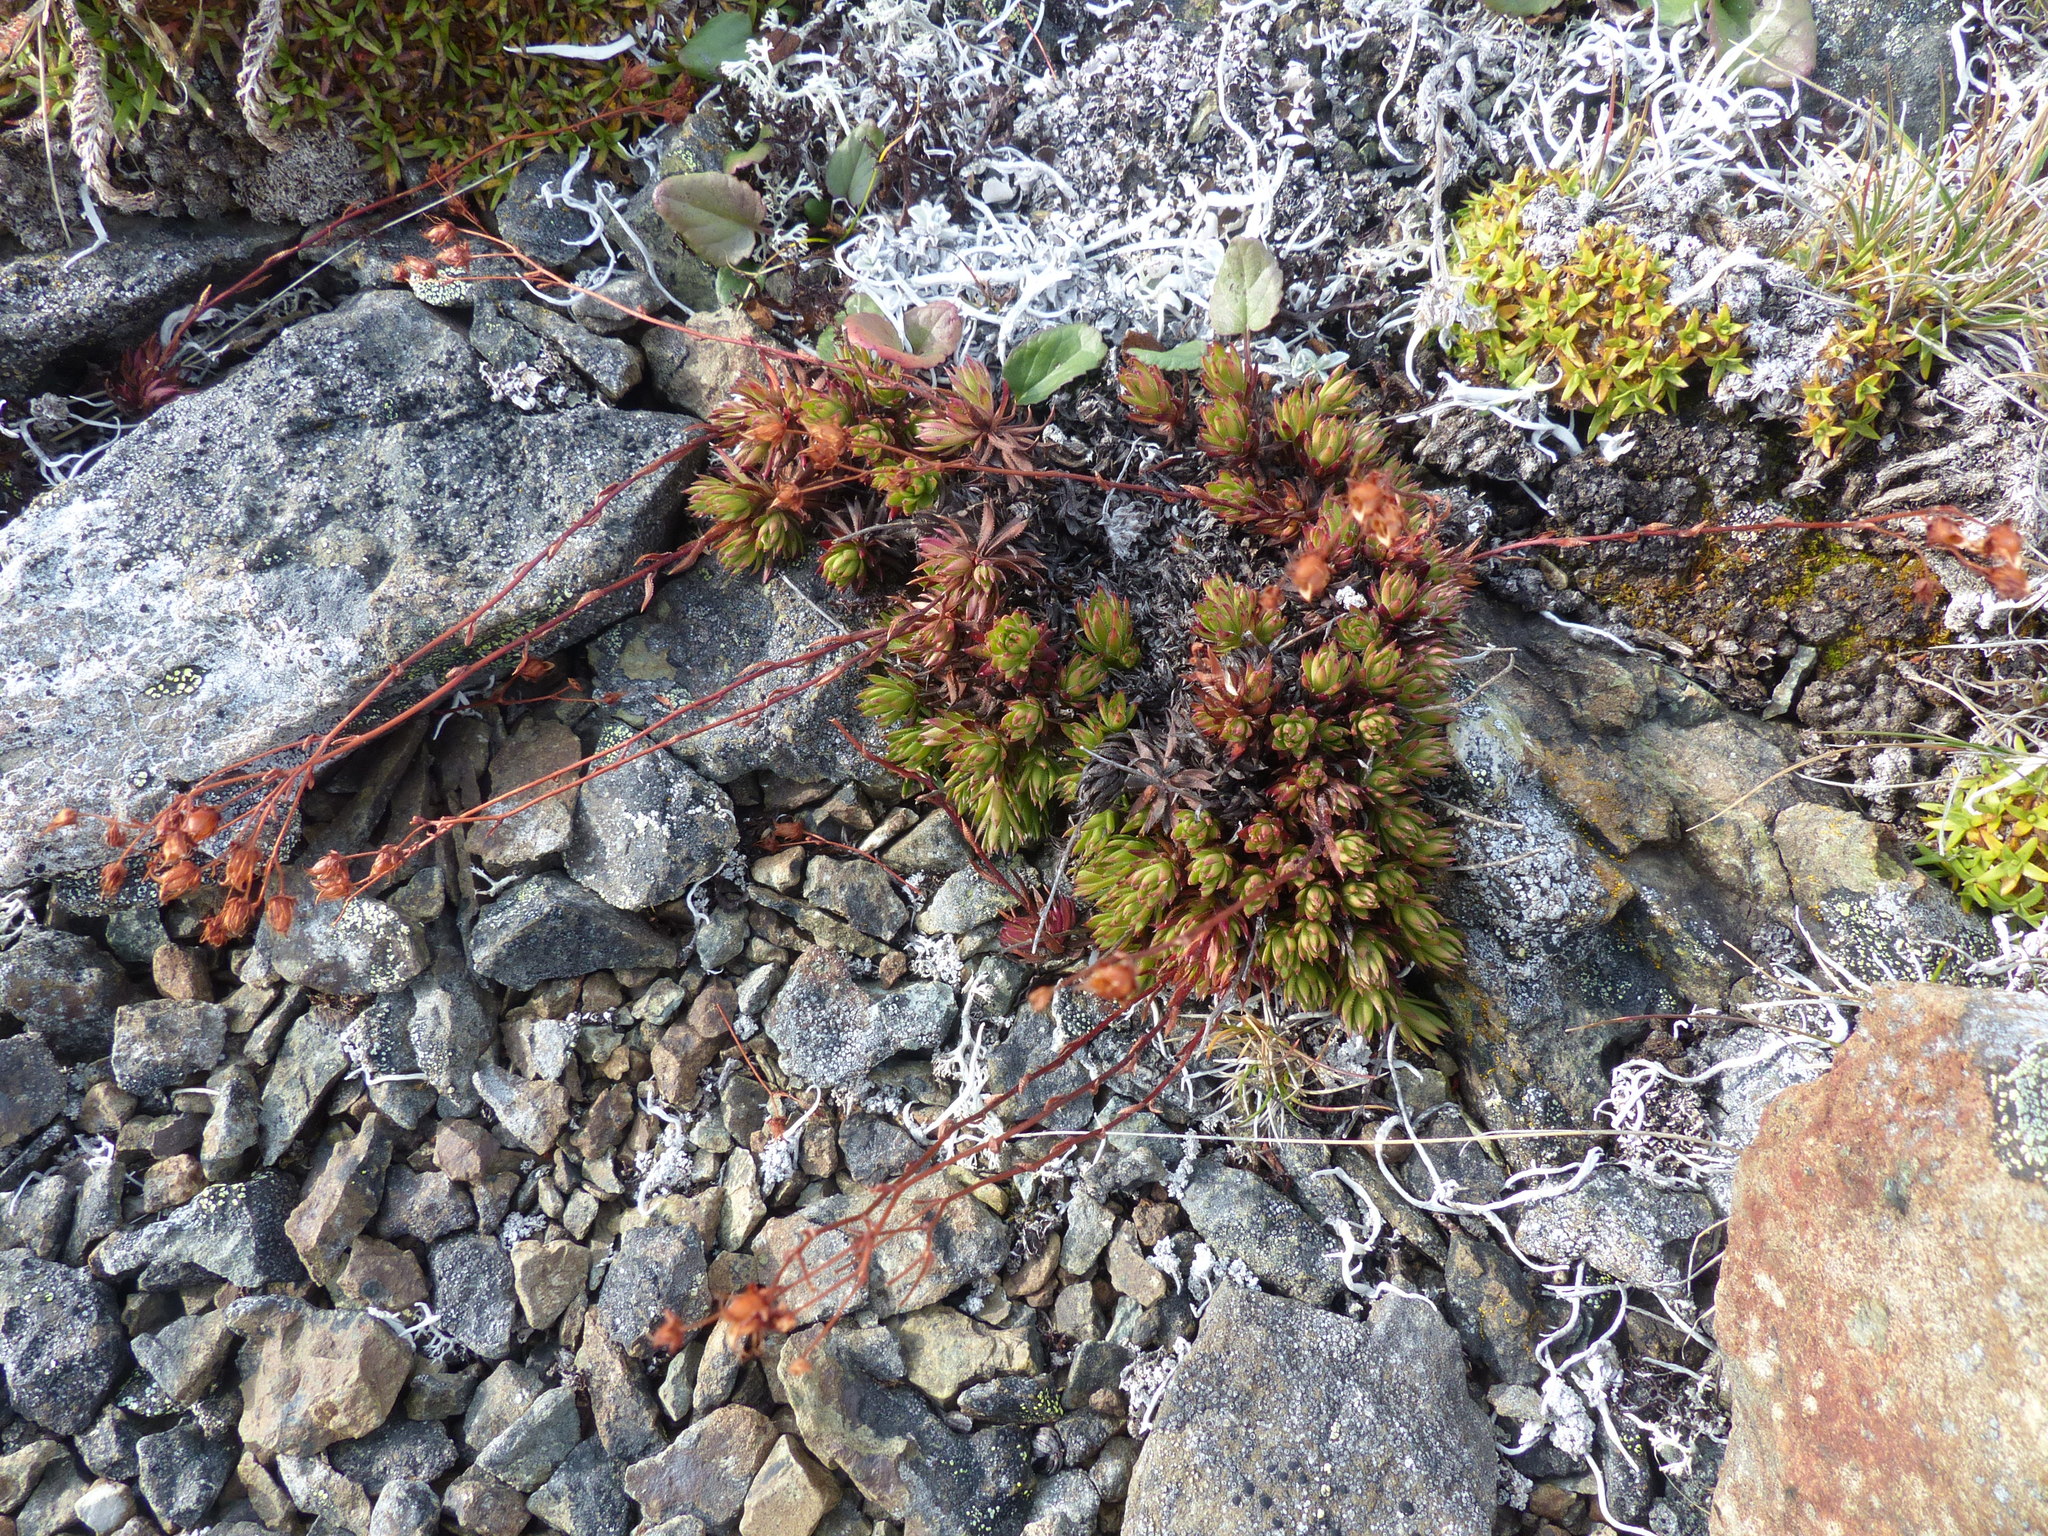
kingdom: Plantae
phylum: Tracheophyta
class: Magnoliopsida
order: Saxifragales
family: Saxifragaceae
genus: Saxifraga
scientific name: Saxifraga bronchialis
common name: Matted saxifrage
